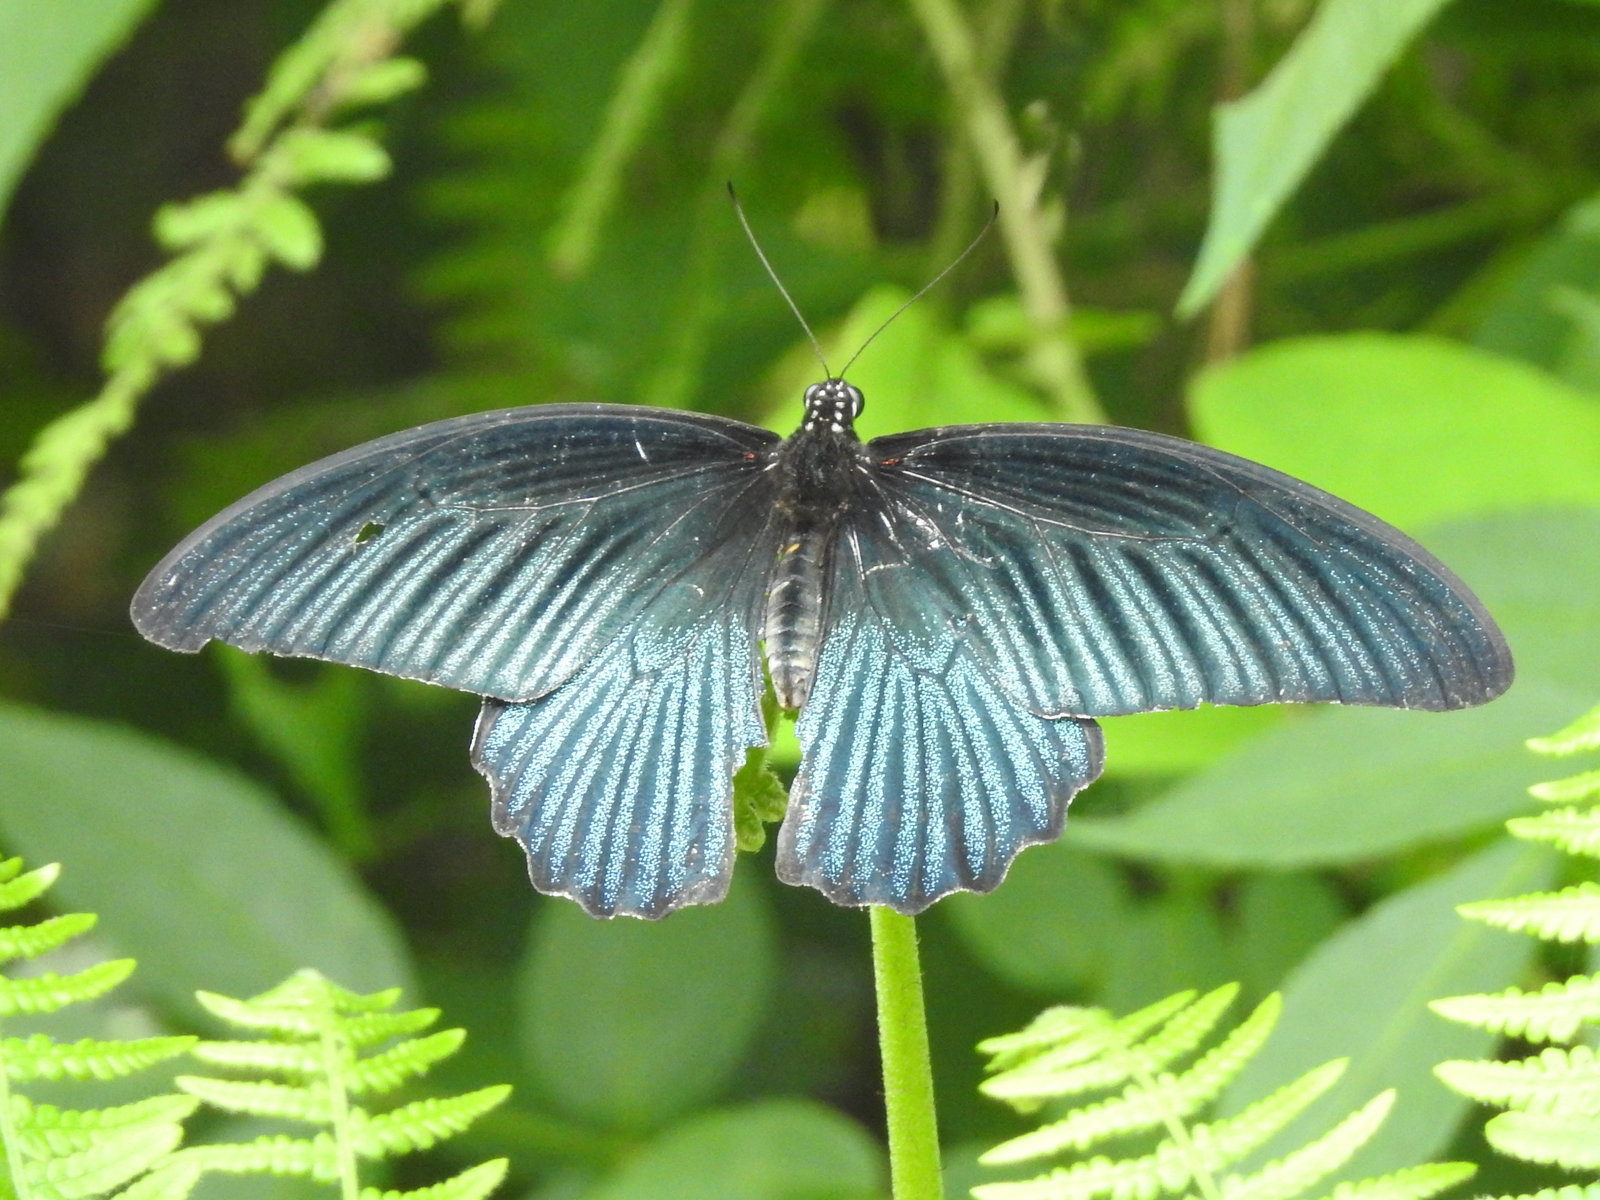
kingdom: Animalia
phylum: Arthropoda
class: Insecta
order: Lepidoptera
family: Papilionidae
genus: Papilio
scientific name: Papilio memnon
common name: Great mormon
